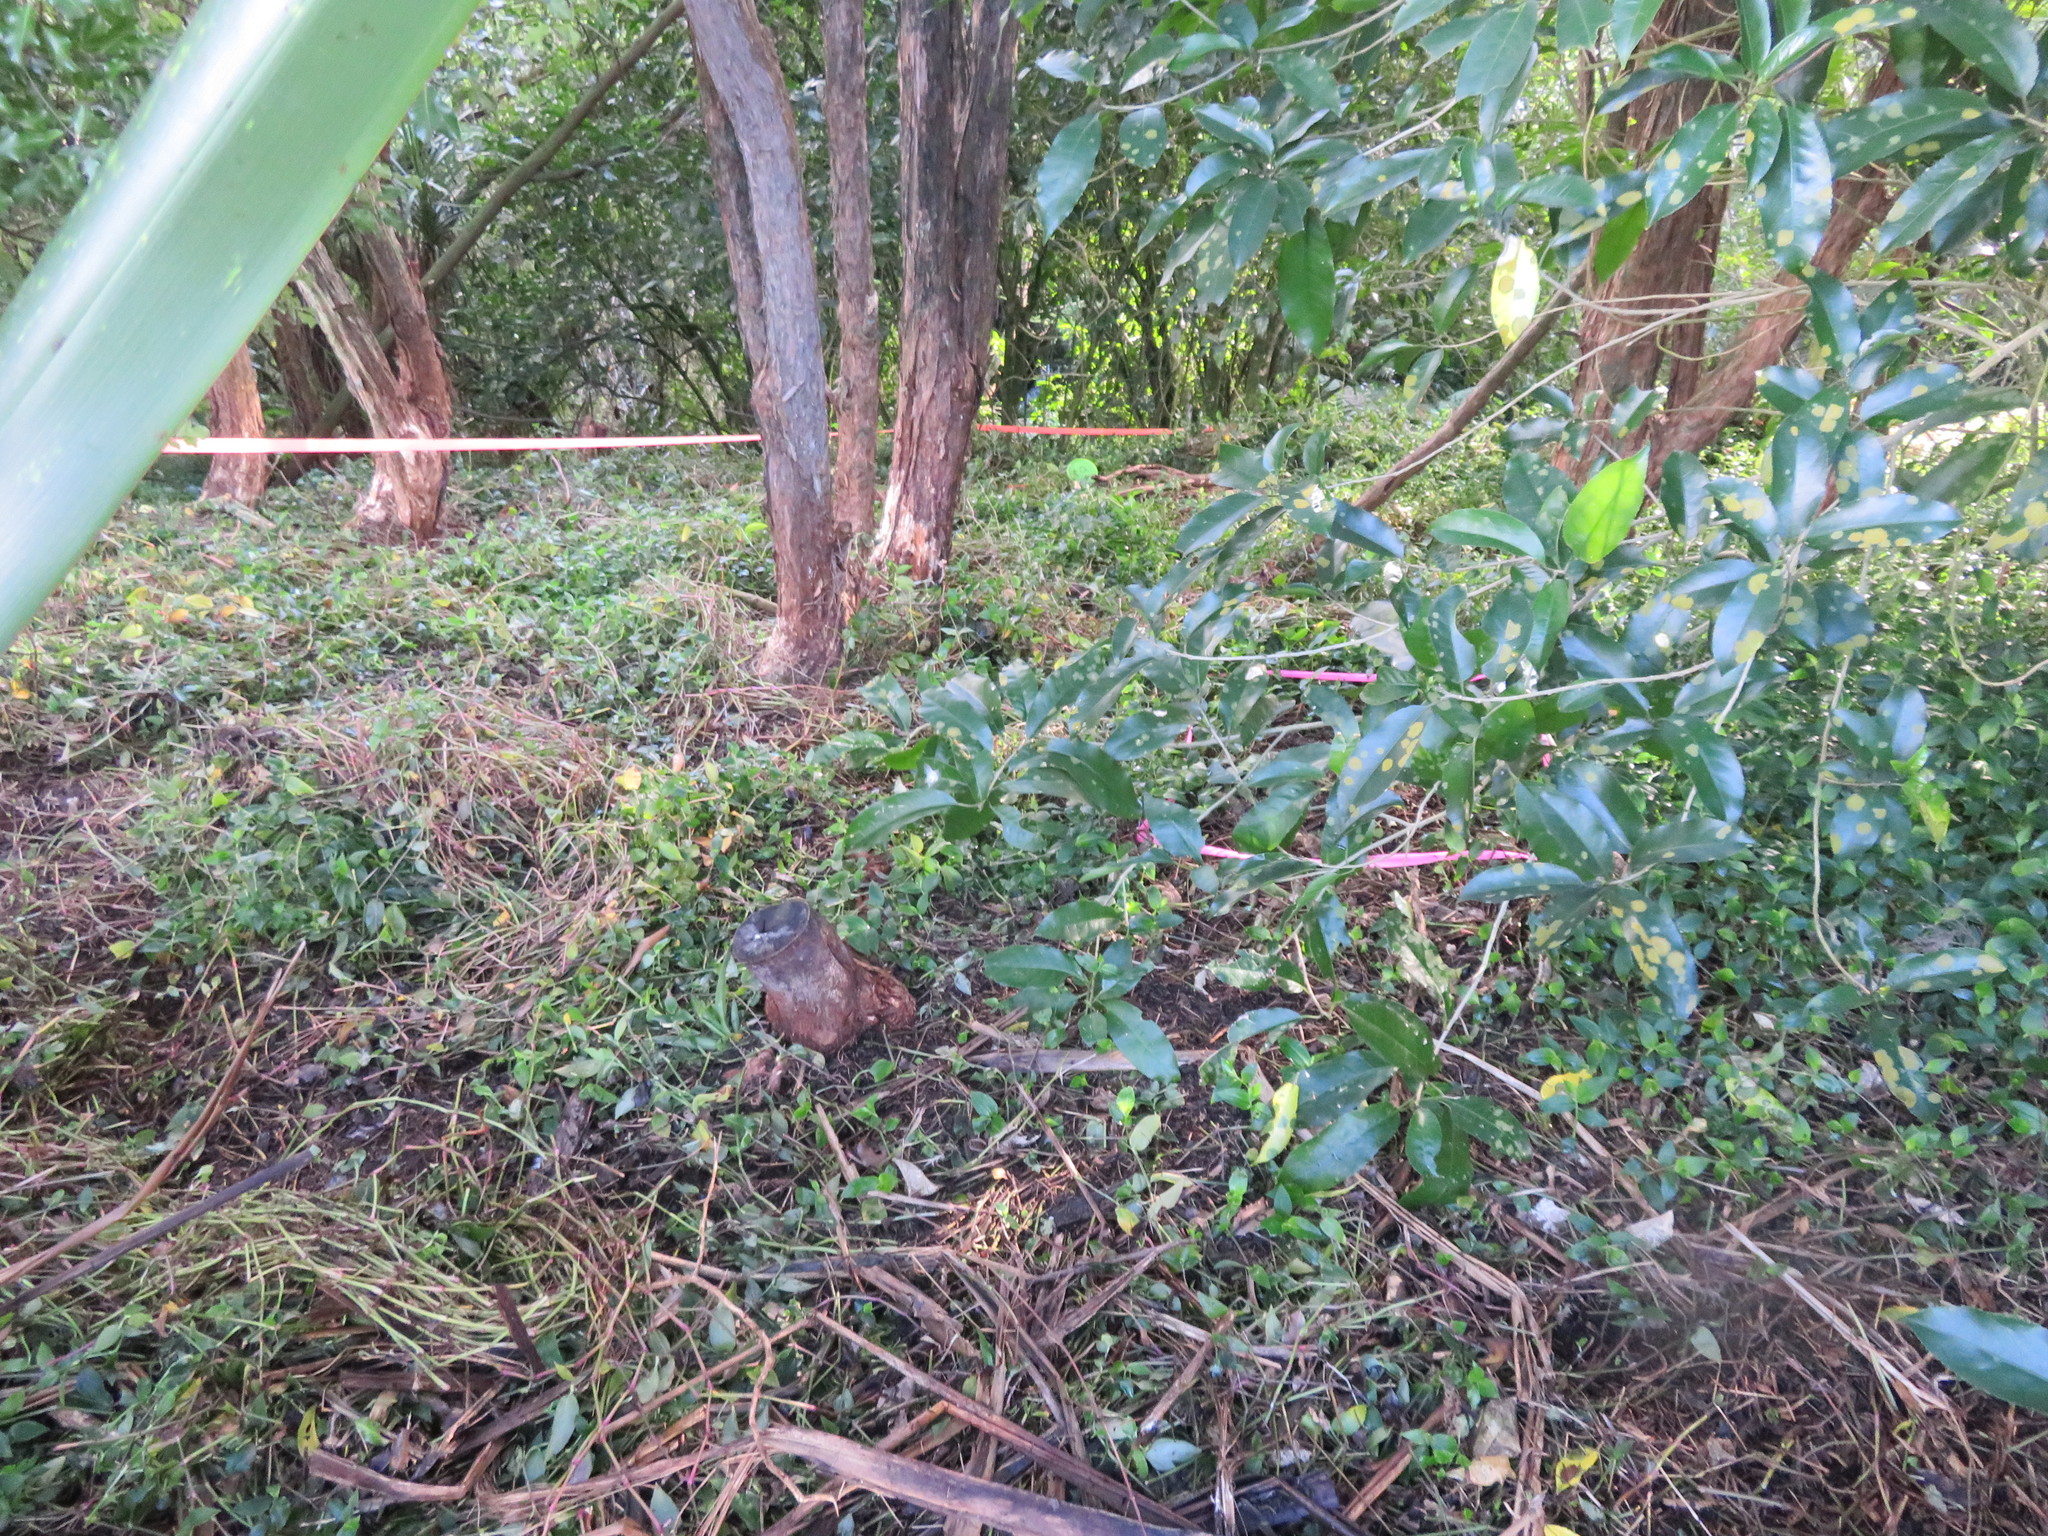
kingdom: Plantae
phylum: Tracheophyta
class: Liliopsida
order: Commelinales
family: Commelinaceae
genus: Tradescantia
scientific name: Tradescantia fluminensis
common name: Wandering-jew
